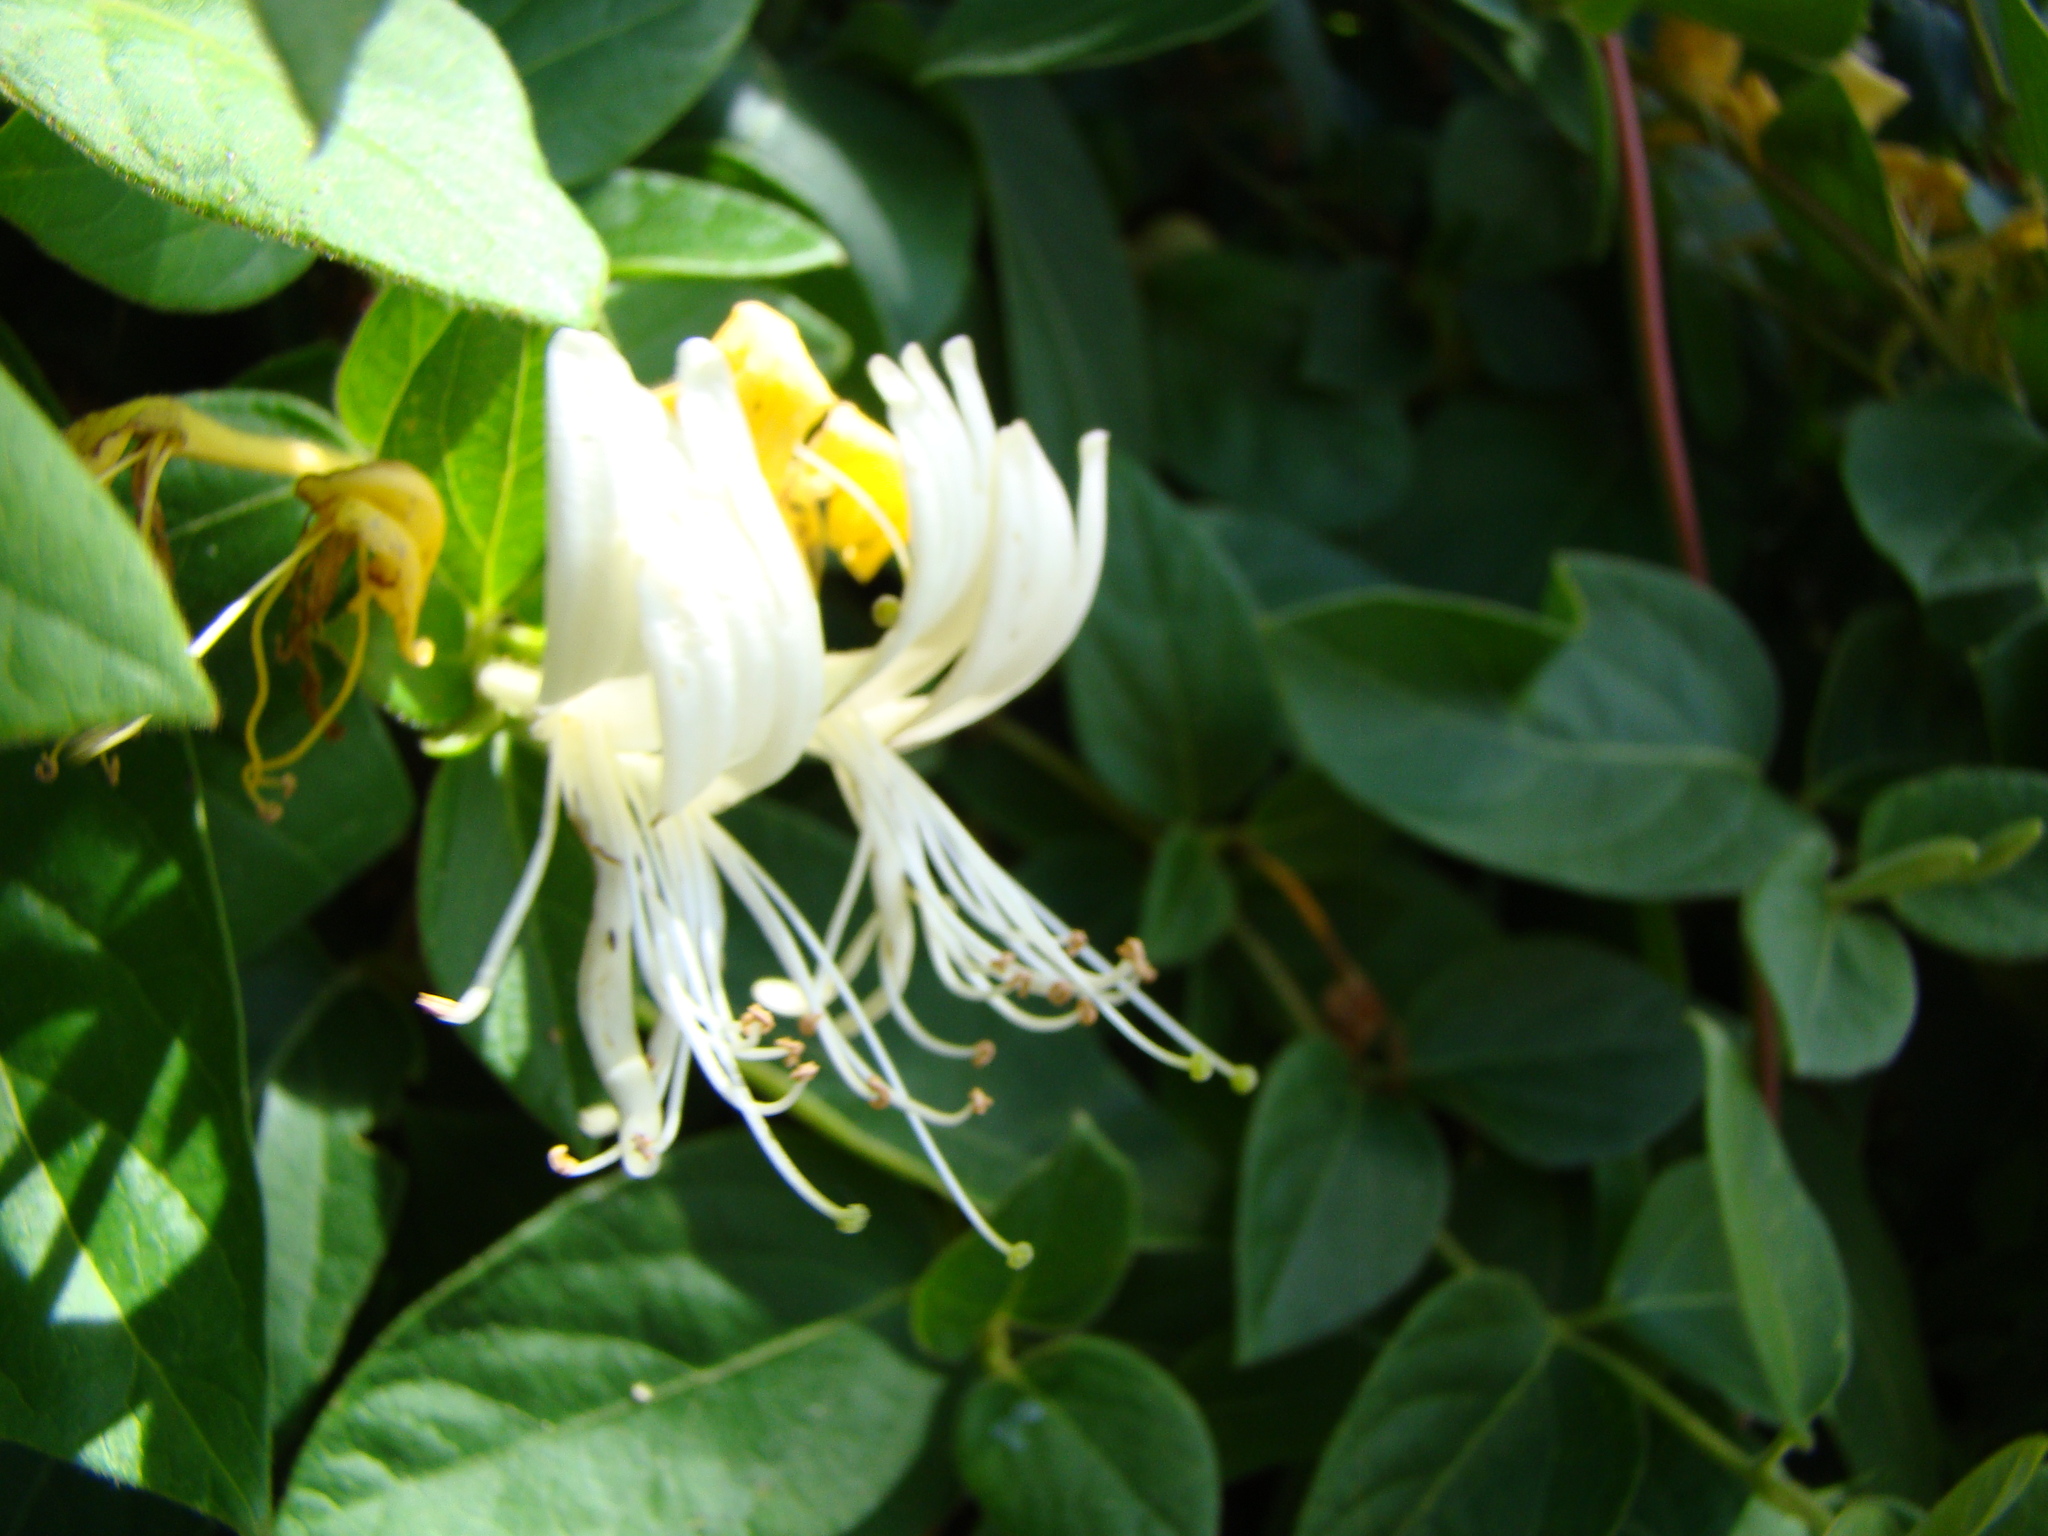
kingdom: Plantae
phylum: Tracheophyta
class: Magnoliopsida
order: Dipsacales
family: Caprifoliaceae
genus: Lonicera
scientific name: Lonicera japonica
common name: Japanese honeysuckle
